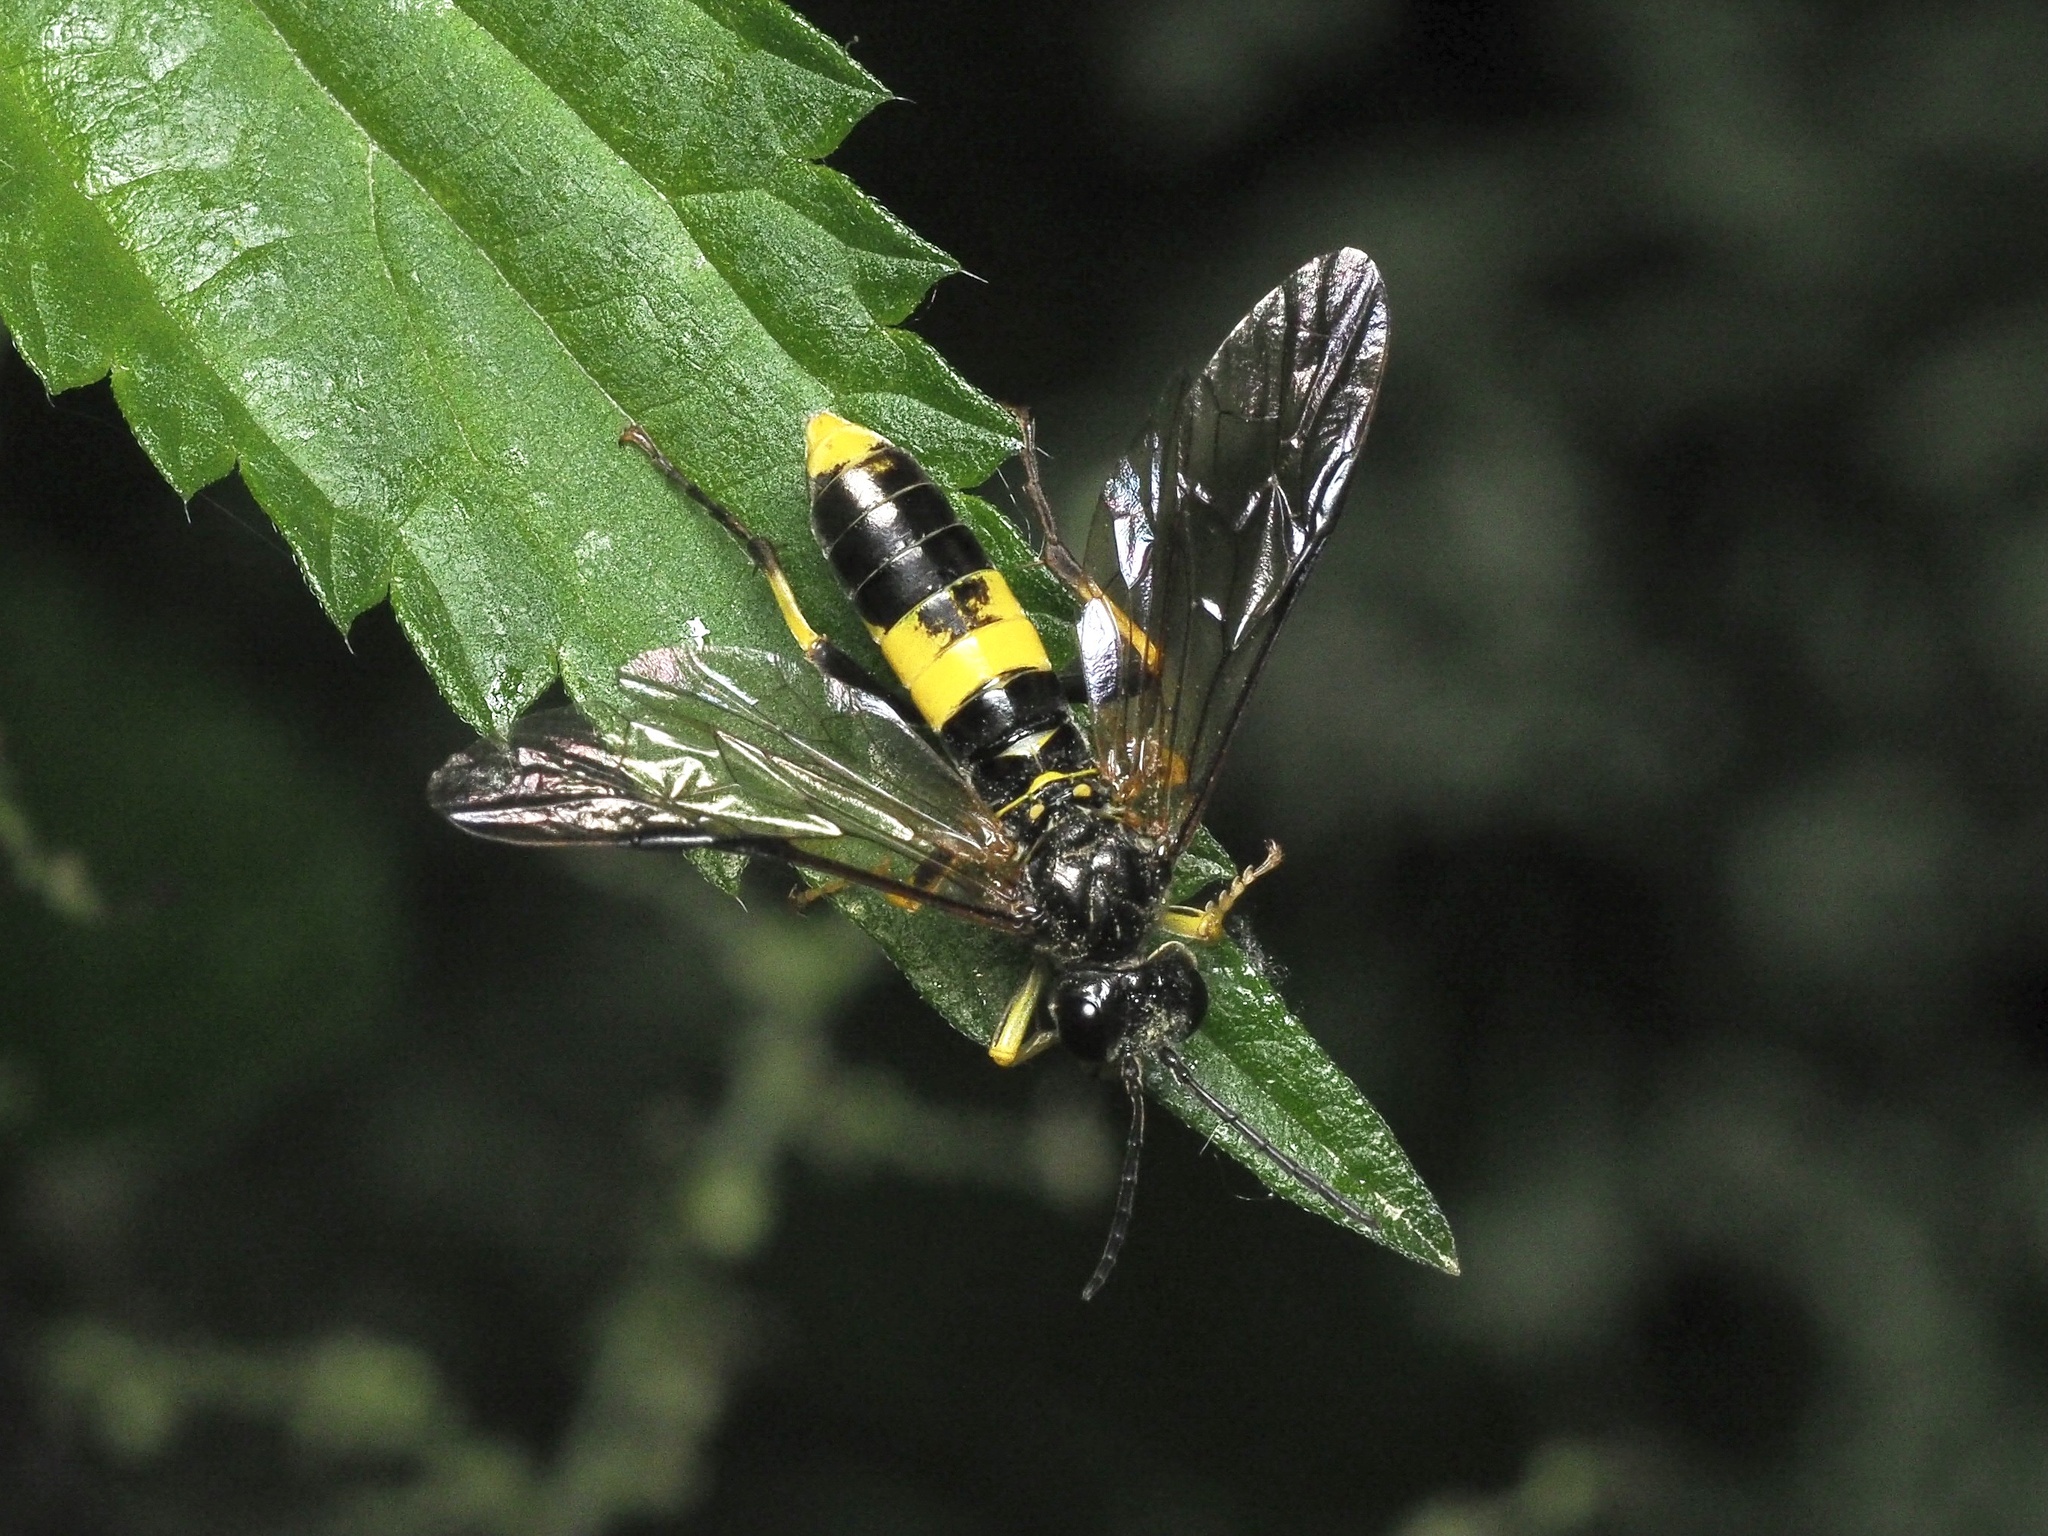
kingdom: Animalia
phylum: Arthropoda
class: Insecta
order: Hymenoptera
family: Tenthredinidae
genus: Tenthredo
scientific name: Tenthredo temula
